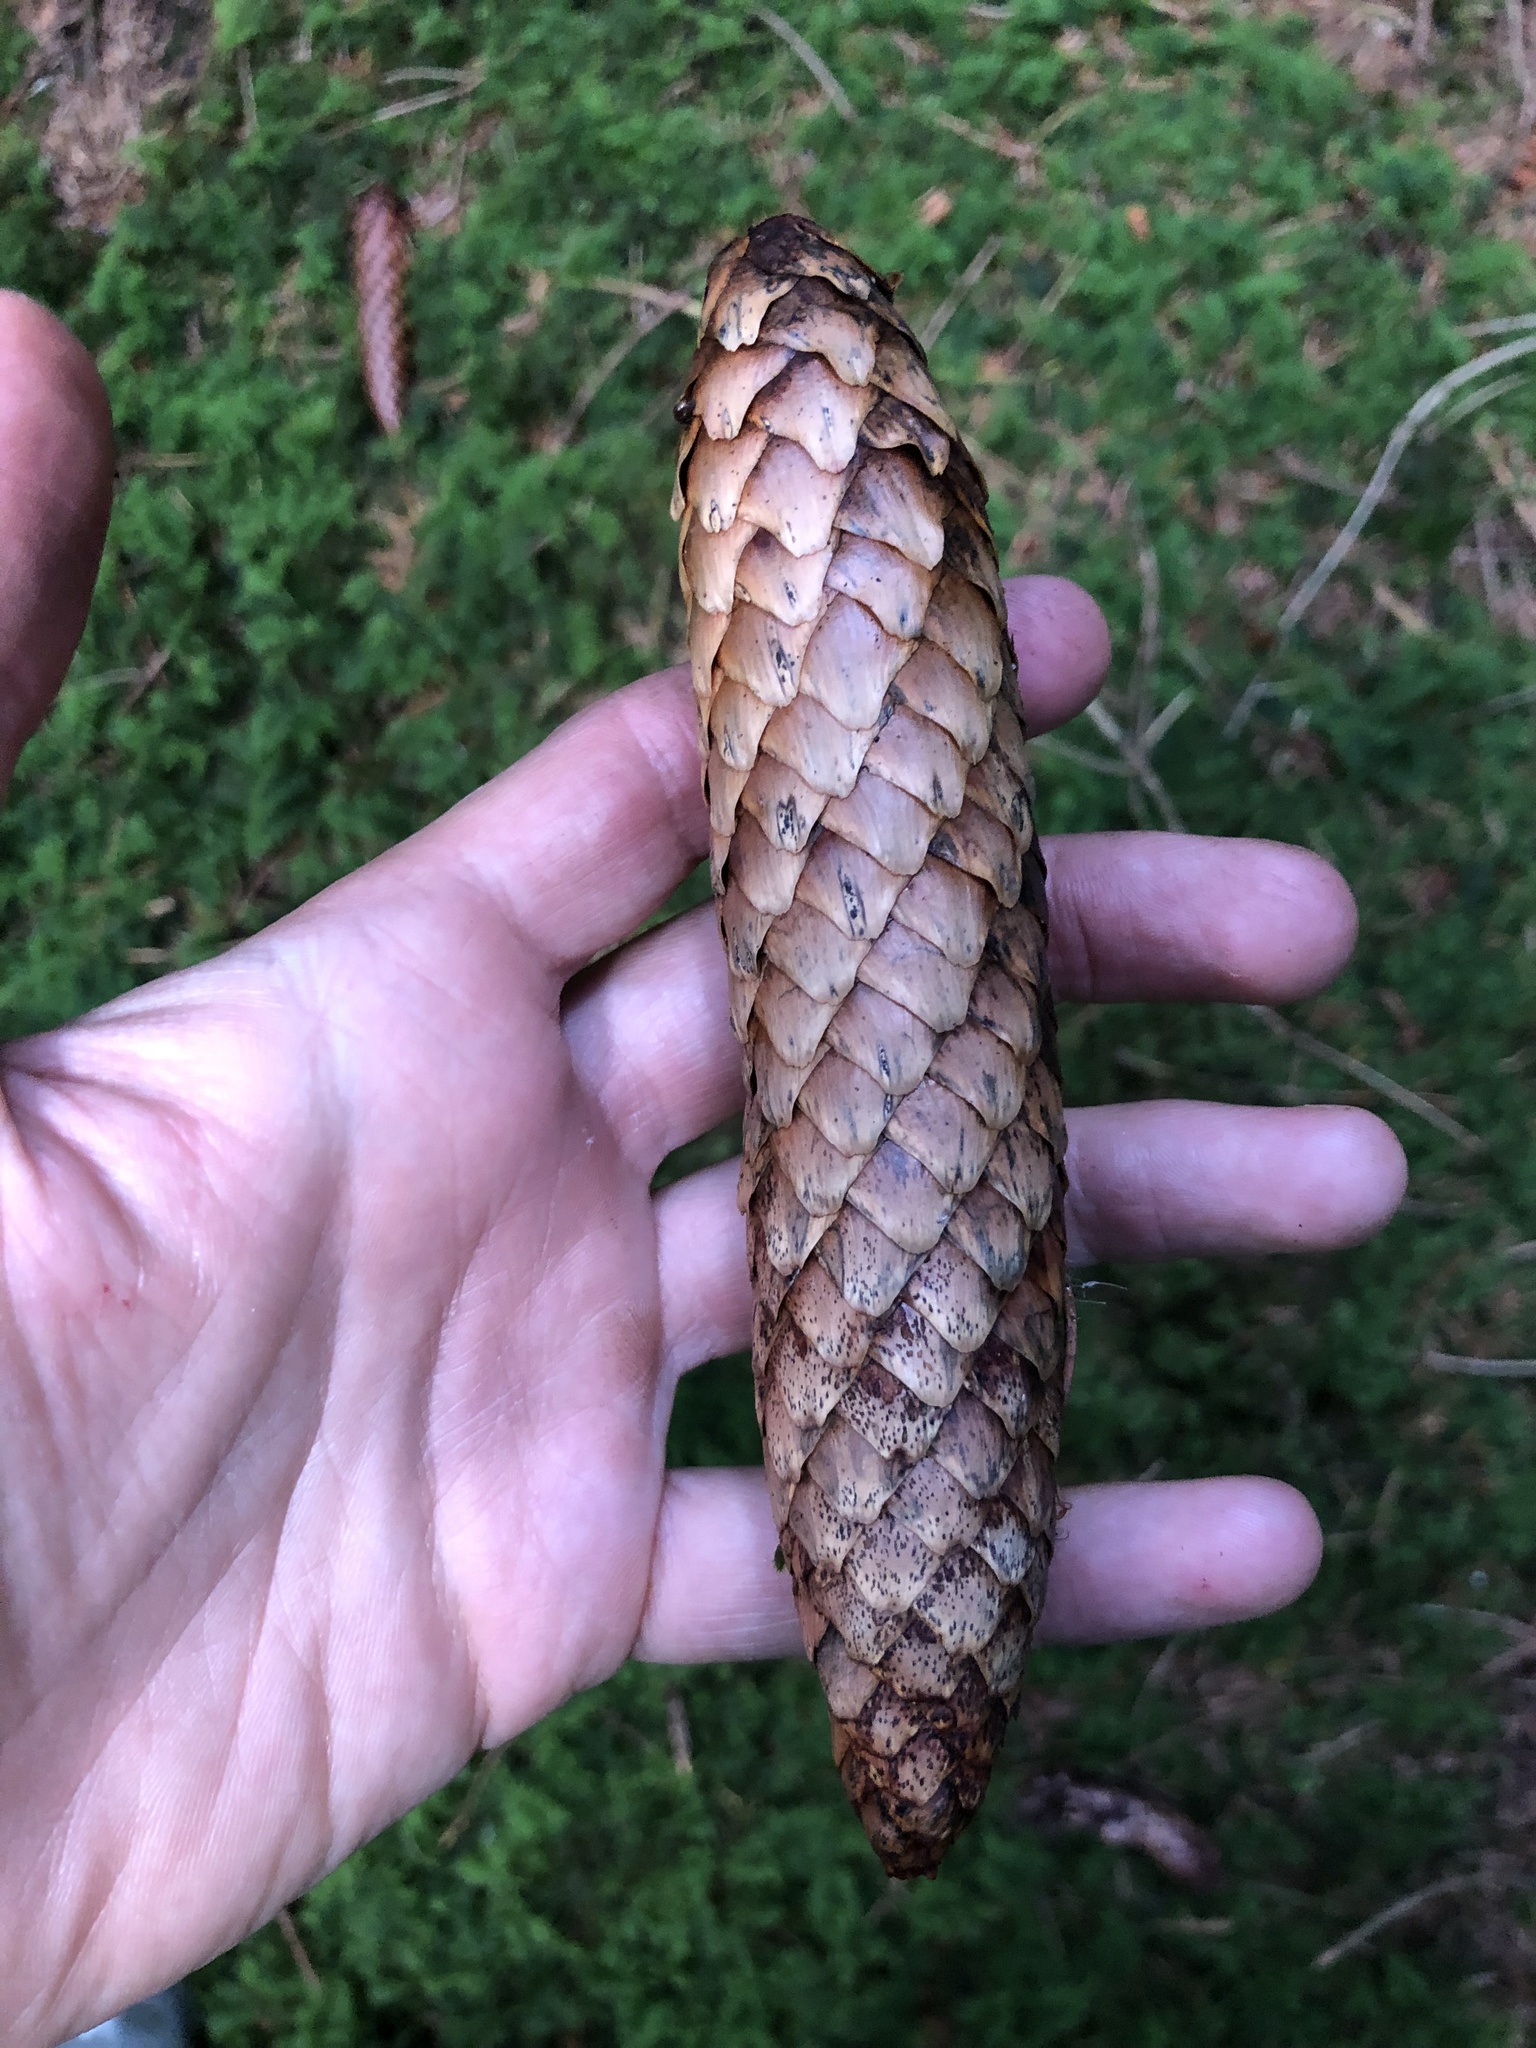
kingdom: Plantae
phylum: Tracheophyta
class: Pinopsida
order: Pinales
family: Pinaceae
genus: Picea
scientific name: Picea abies
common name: Norway spruce
